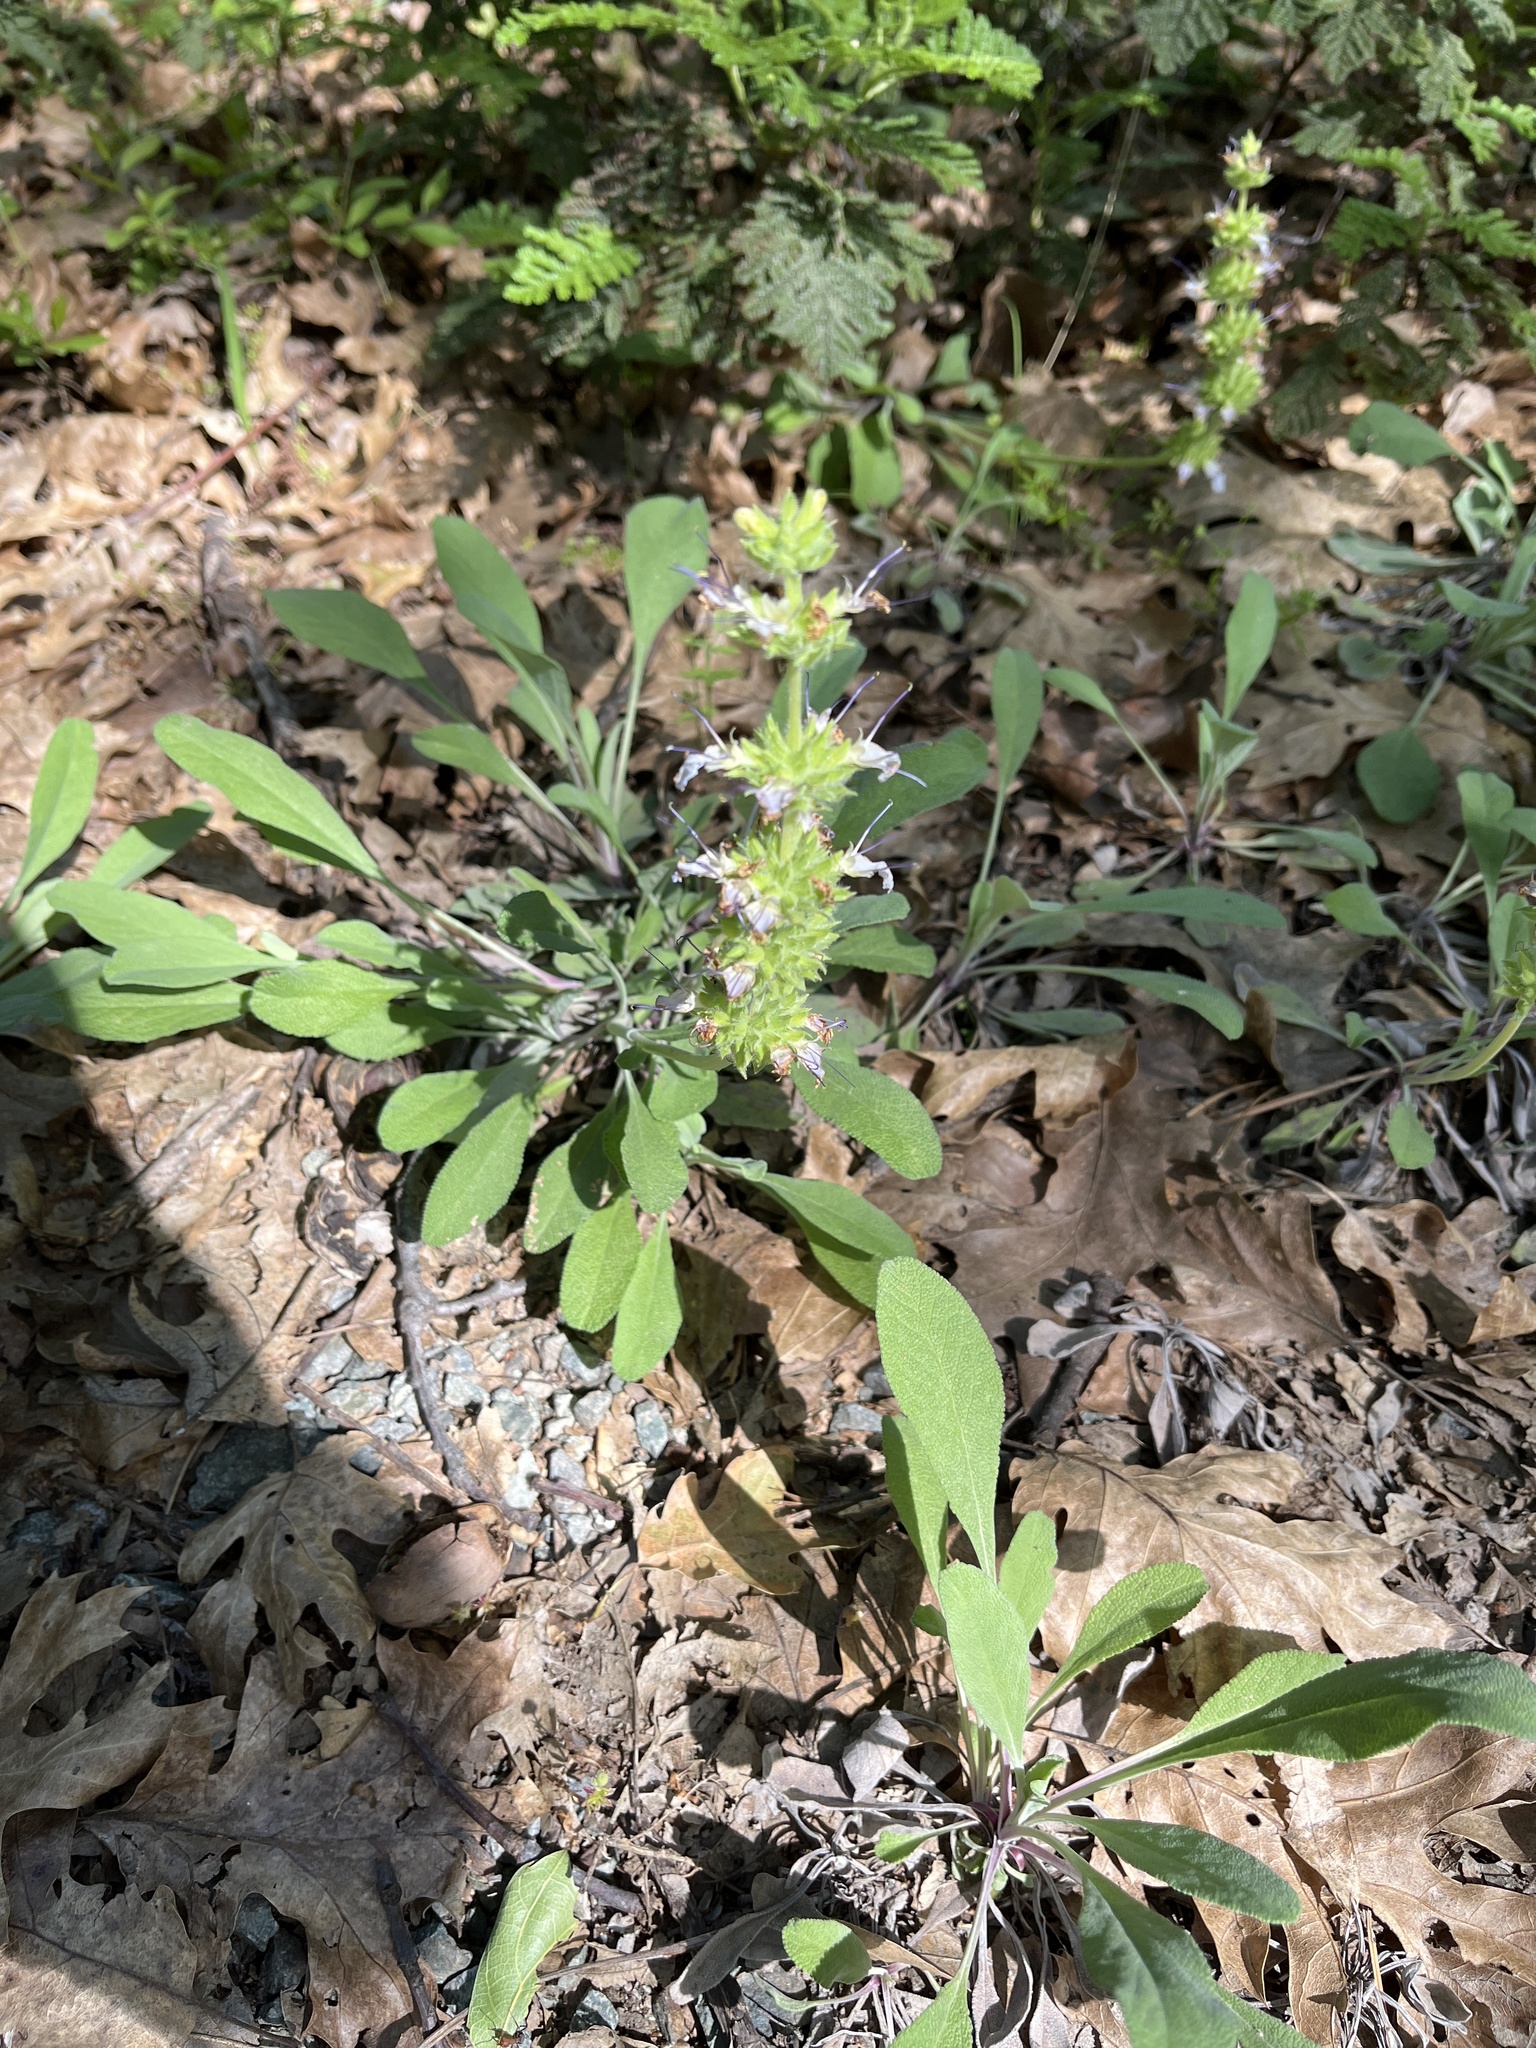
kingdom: Plantae
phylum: Tracheophyta
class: Magnoliopsida
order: Lamiales
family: Lamiaceae
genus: Salvia
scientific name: Salvia sonomensis
